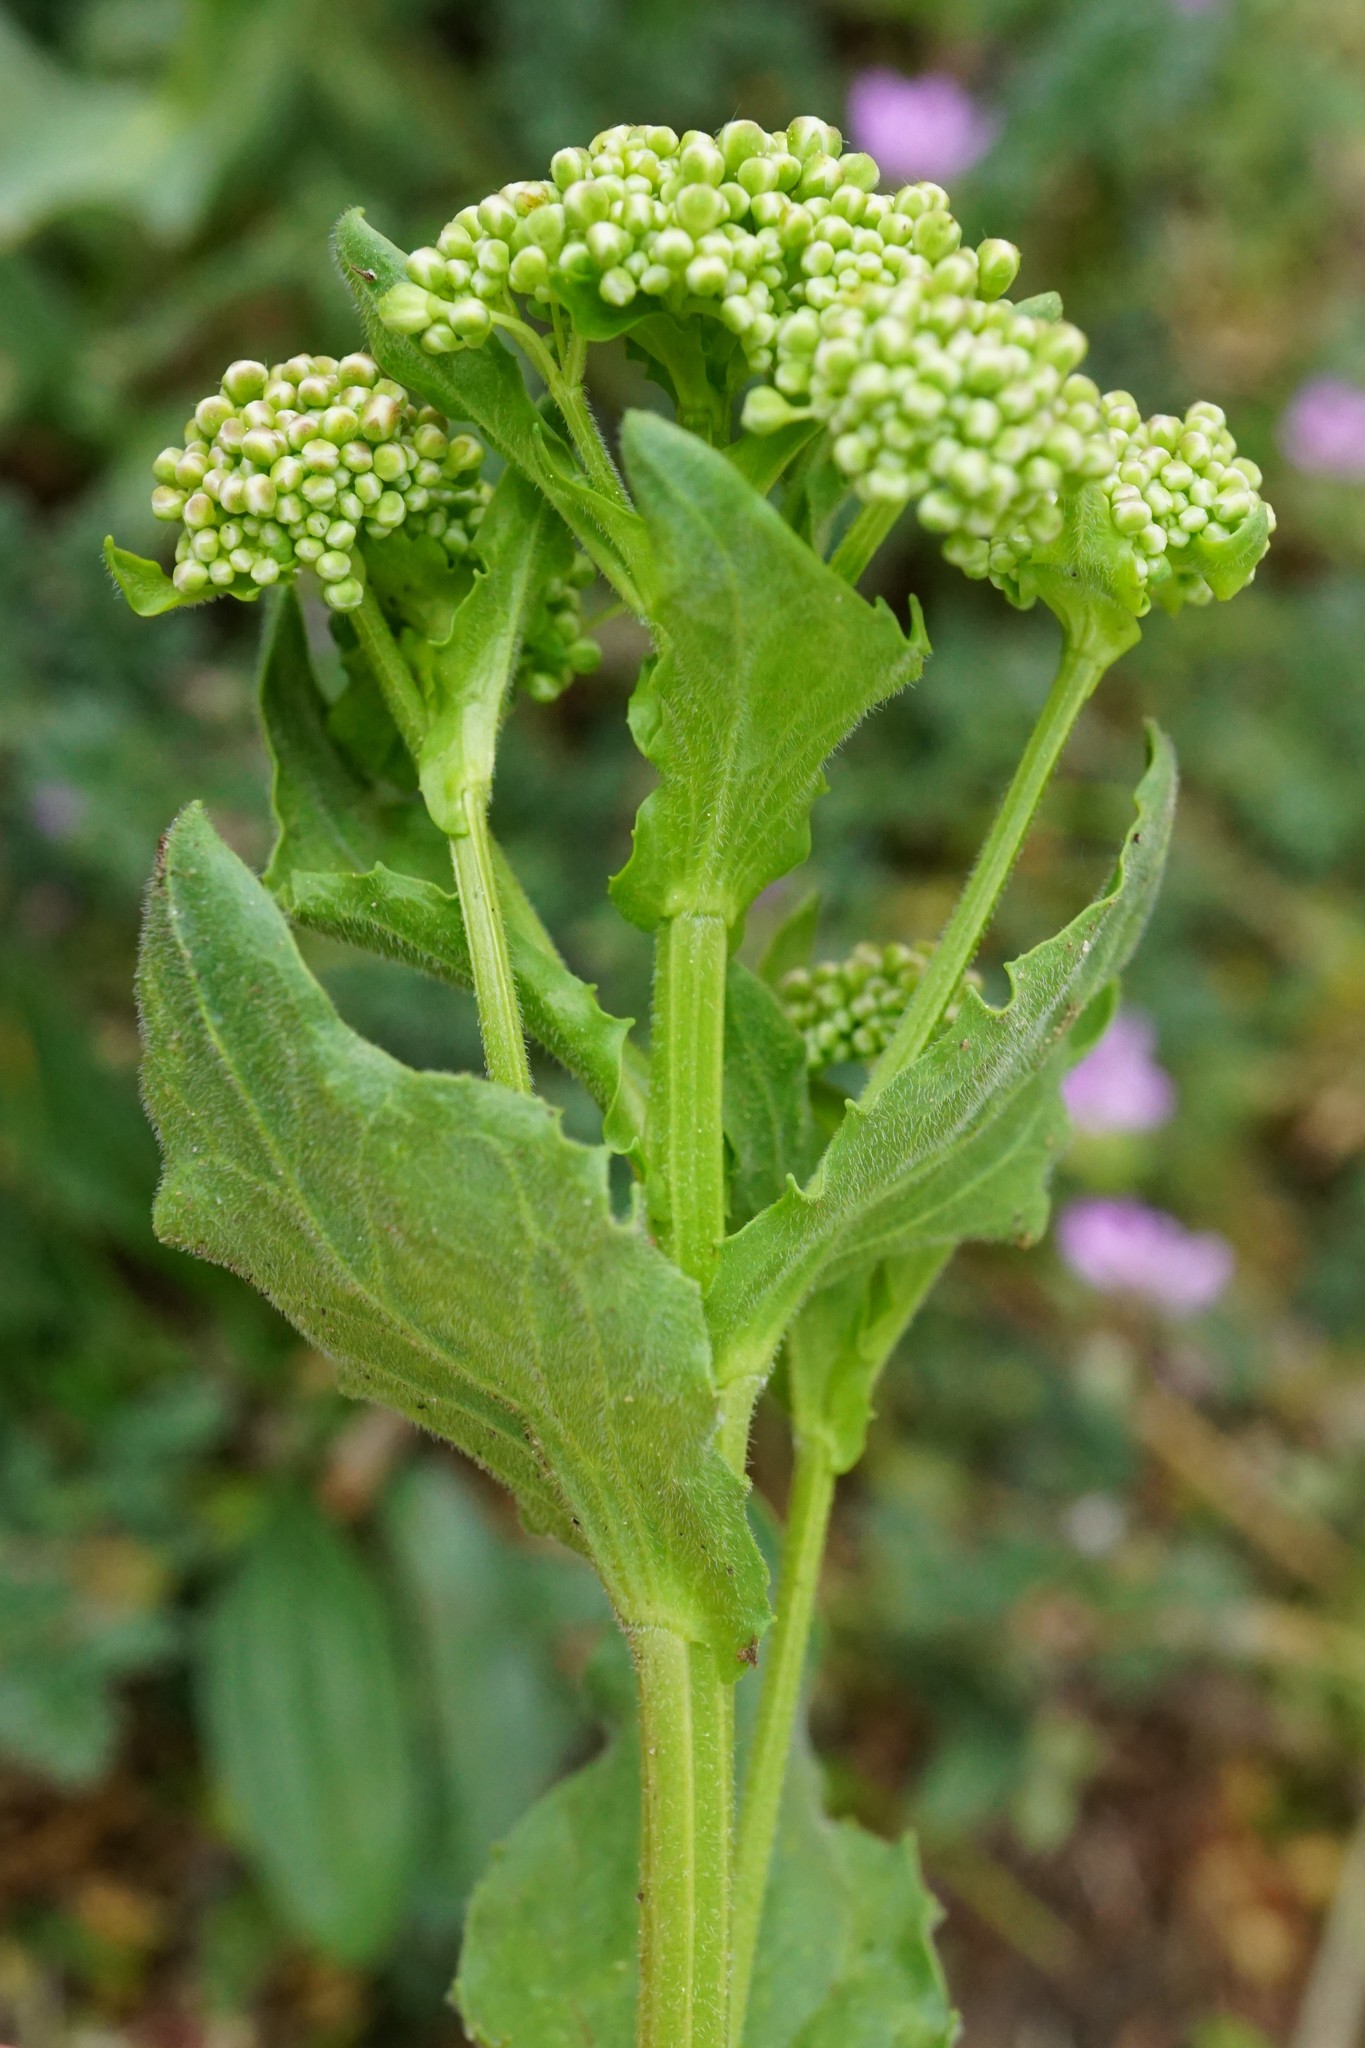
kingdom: Plantae
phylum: Tracheophyta
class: Magnoliopsida
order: Brassicales
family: Brassicaceae
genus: Lepidium
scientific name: Lepidium draba
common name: Hoary cress
